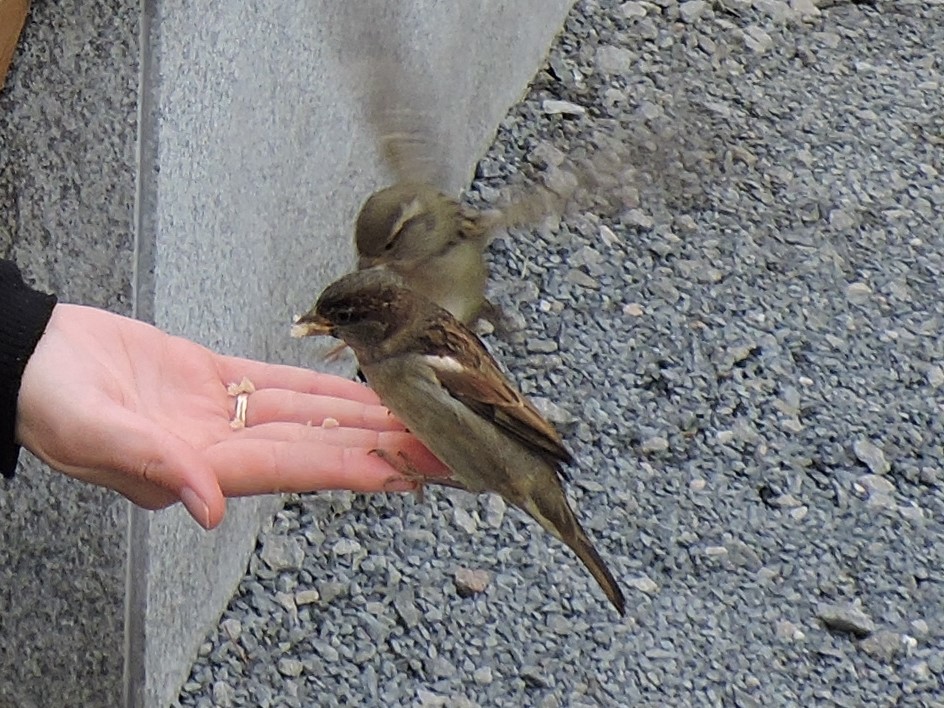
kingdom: Animalia
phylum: Chordata
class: Aves
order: Passeriformes
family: Passeridae
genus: Passer
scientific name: Passer domesticus
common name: House sparrow
